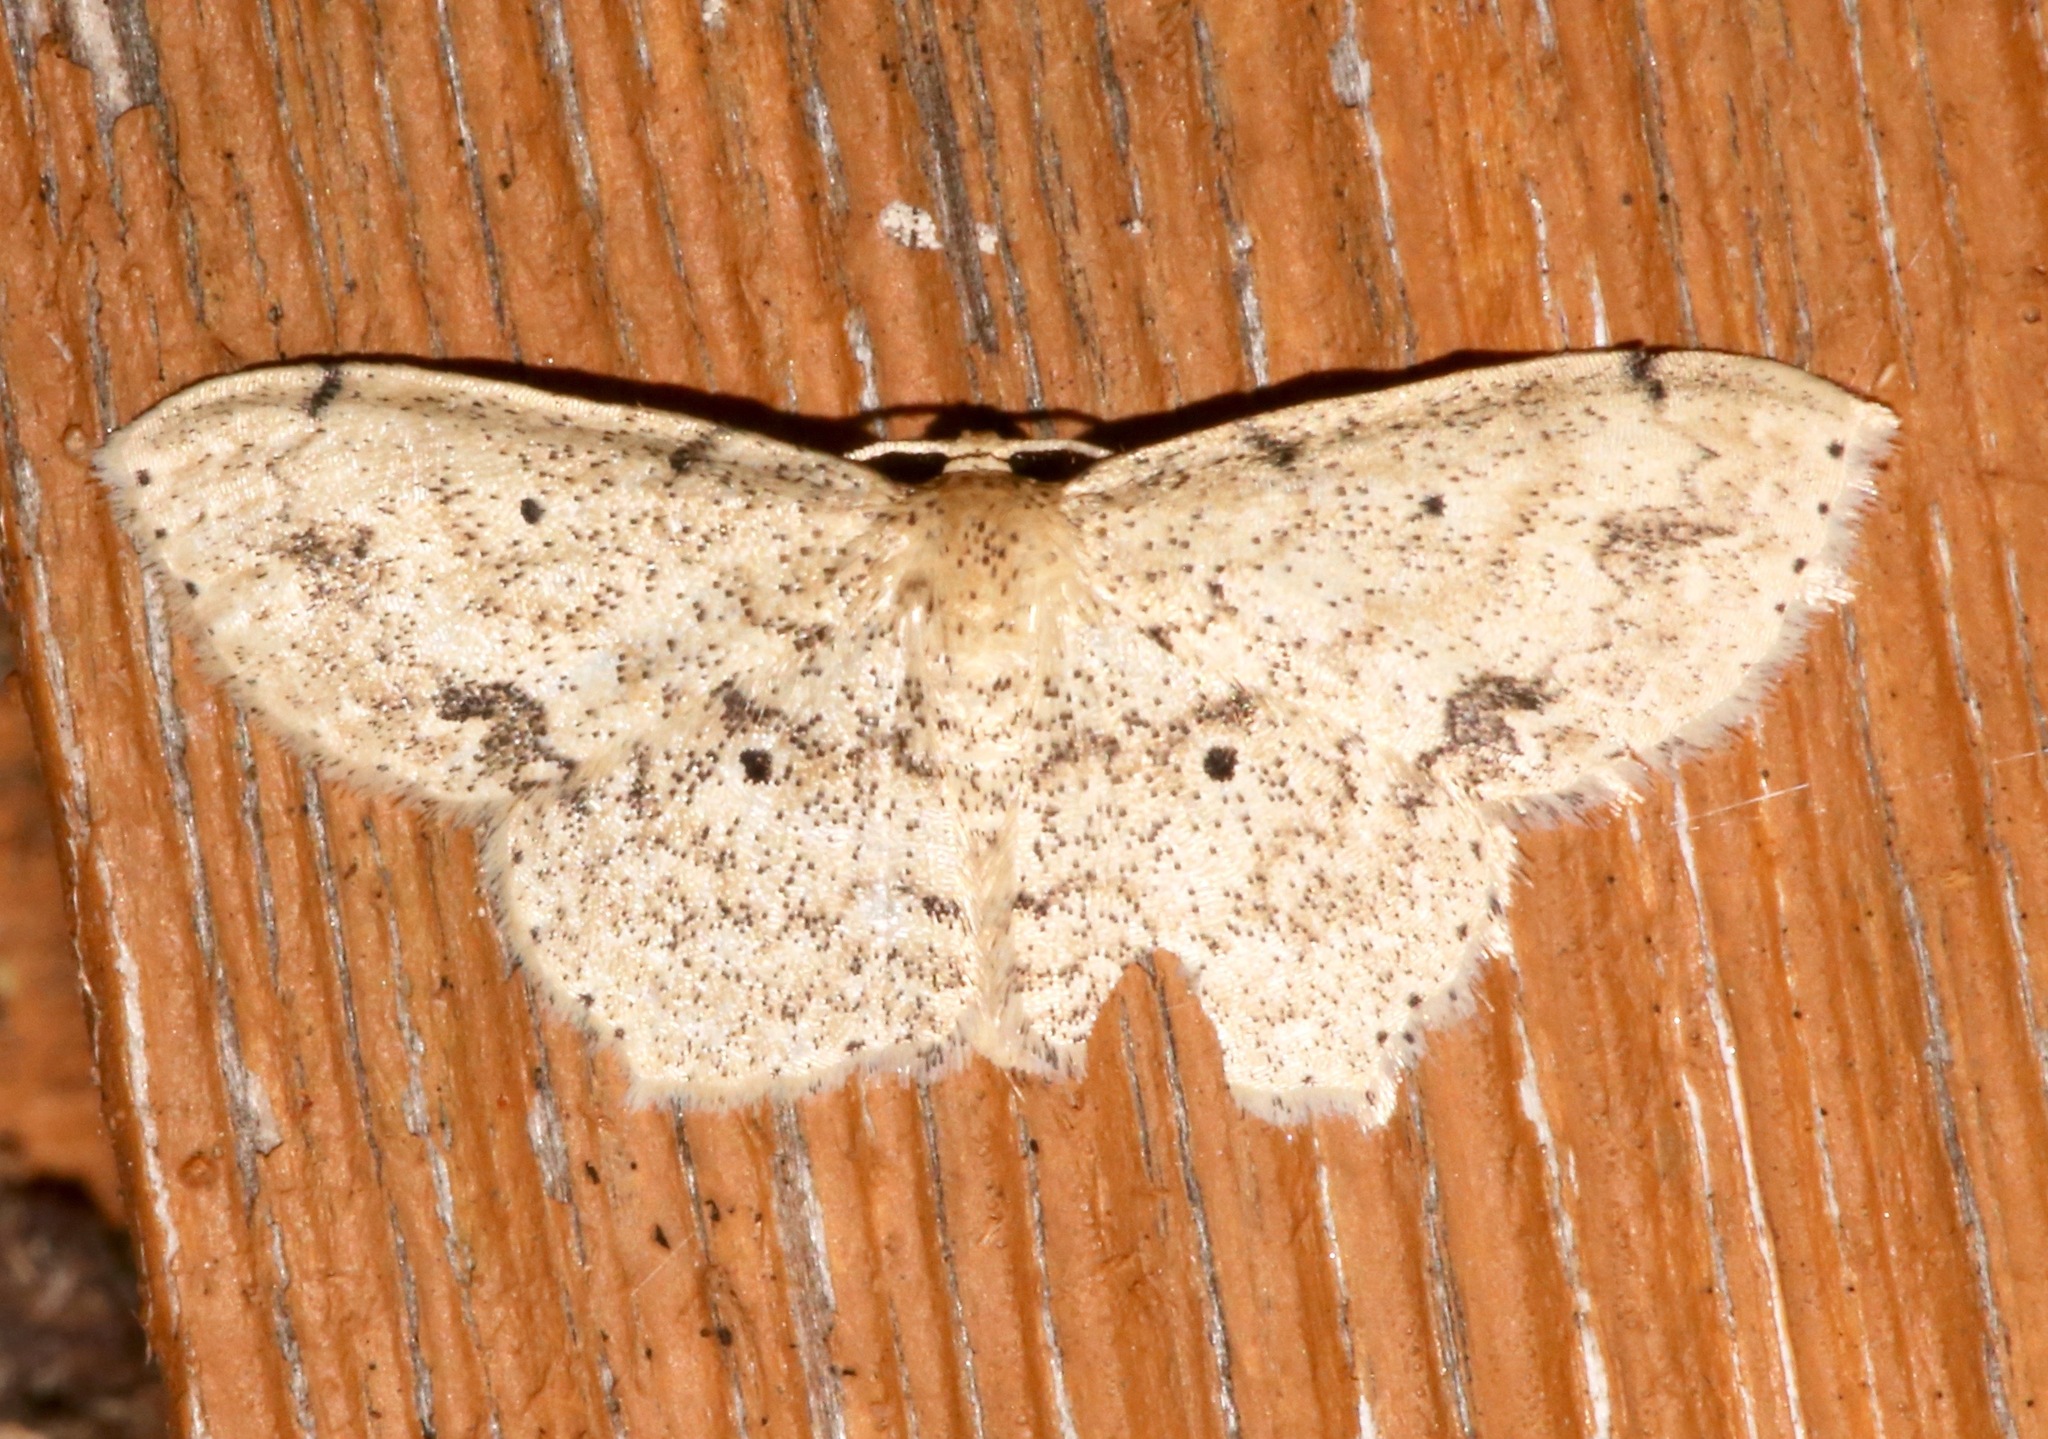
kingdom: Animalia
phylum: Arthropoda
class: Insecta
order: Lepidoptera
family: Geometridae
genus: Scopula
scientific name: Scopula compensata
